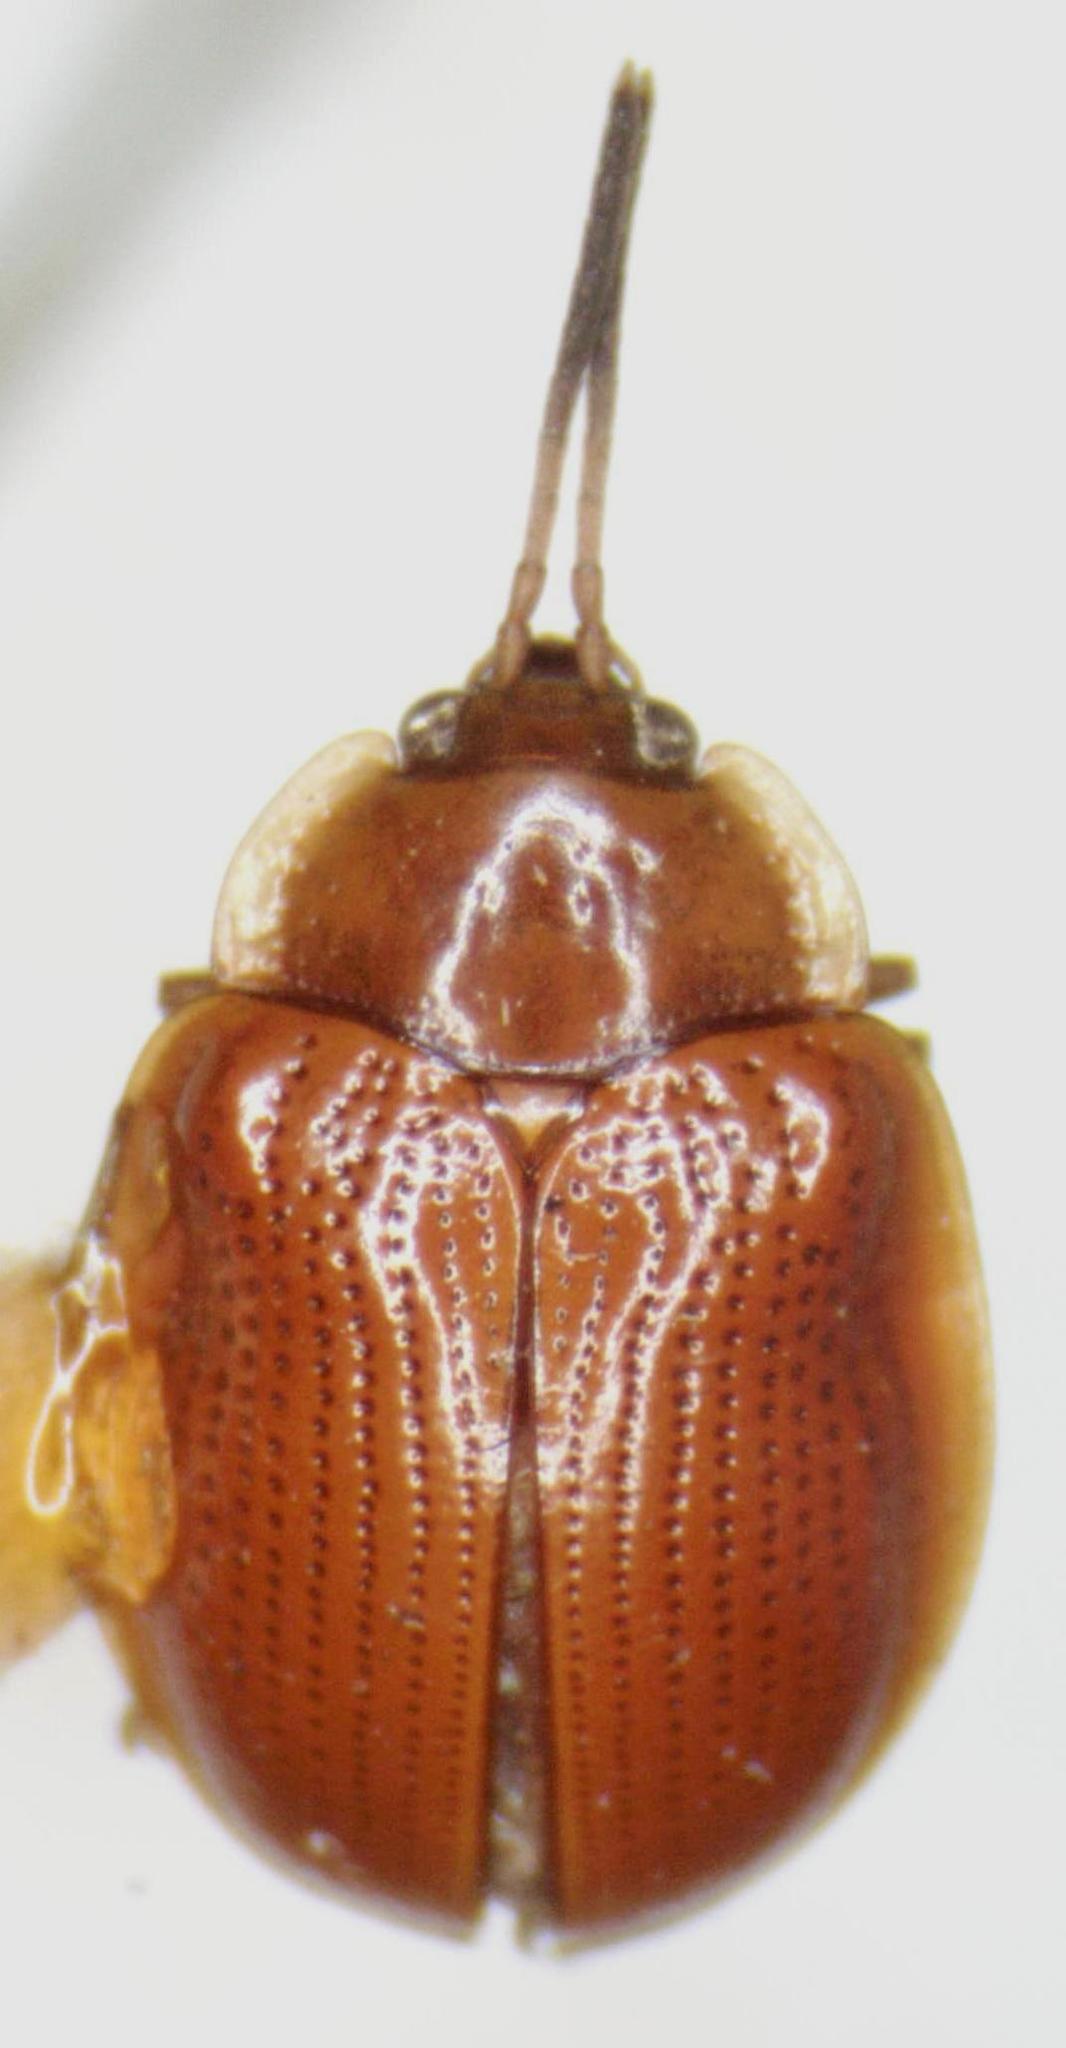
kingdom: Animalia
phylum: Arthropoda
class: Insecta
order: Coleoptera
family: Chrysomelidae
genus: Demotispa
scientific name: Demotispa
